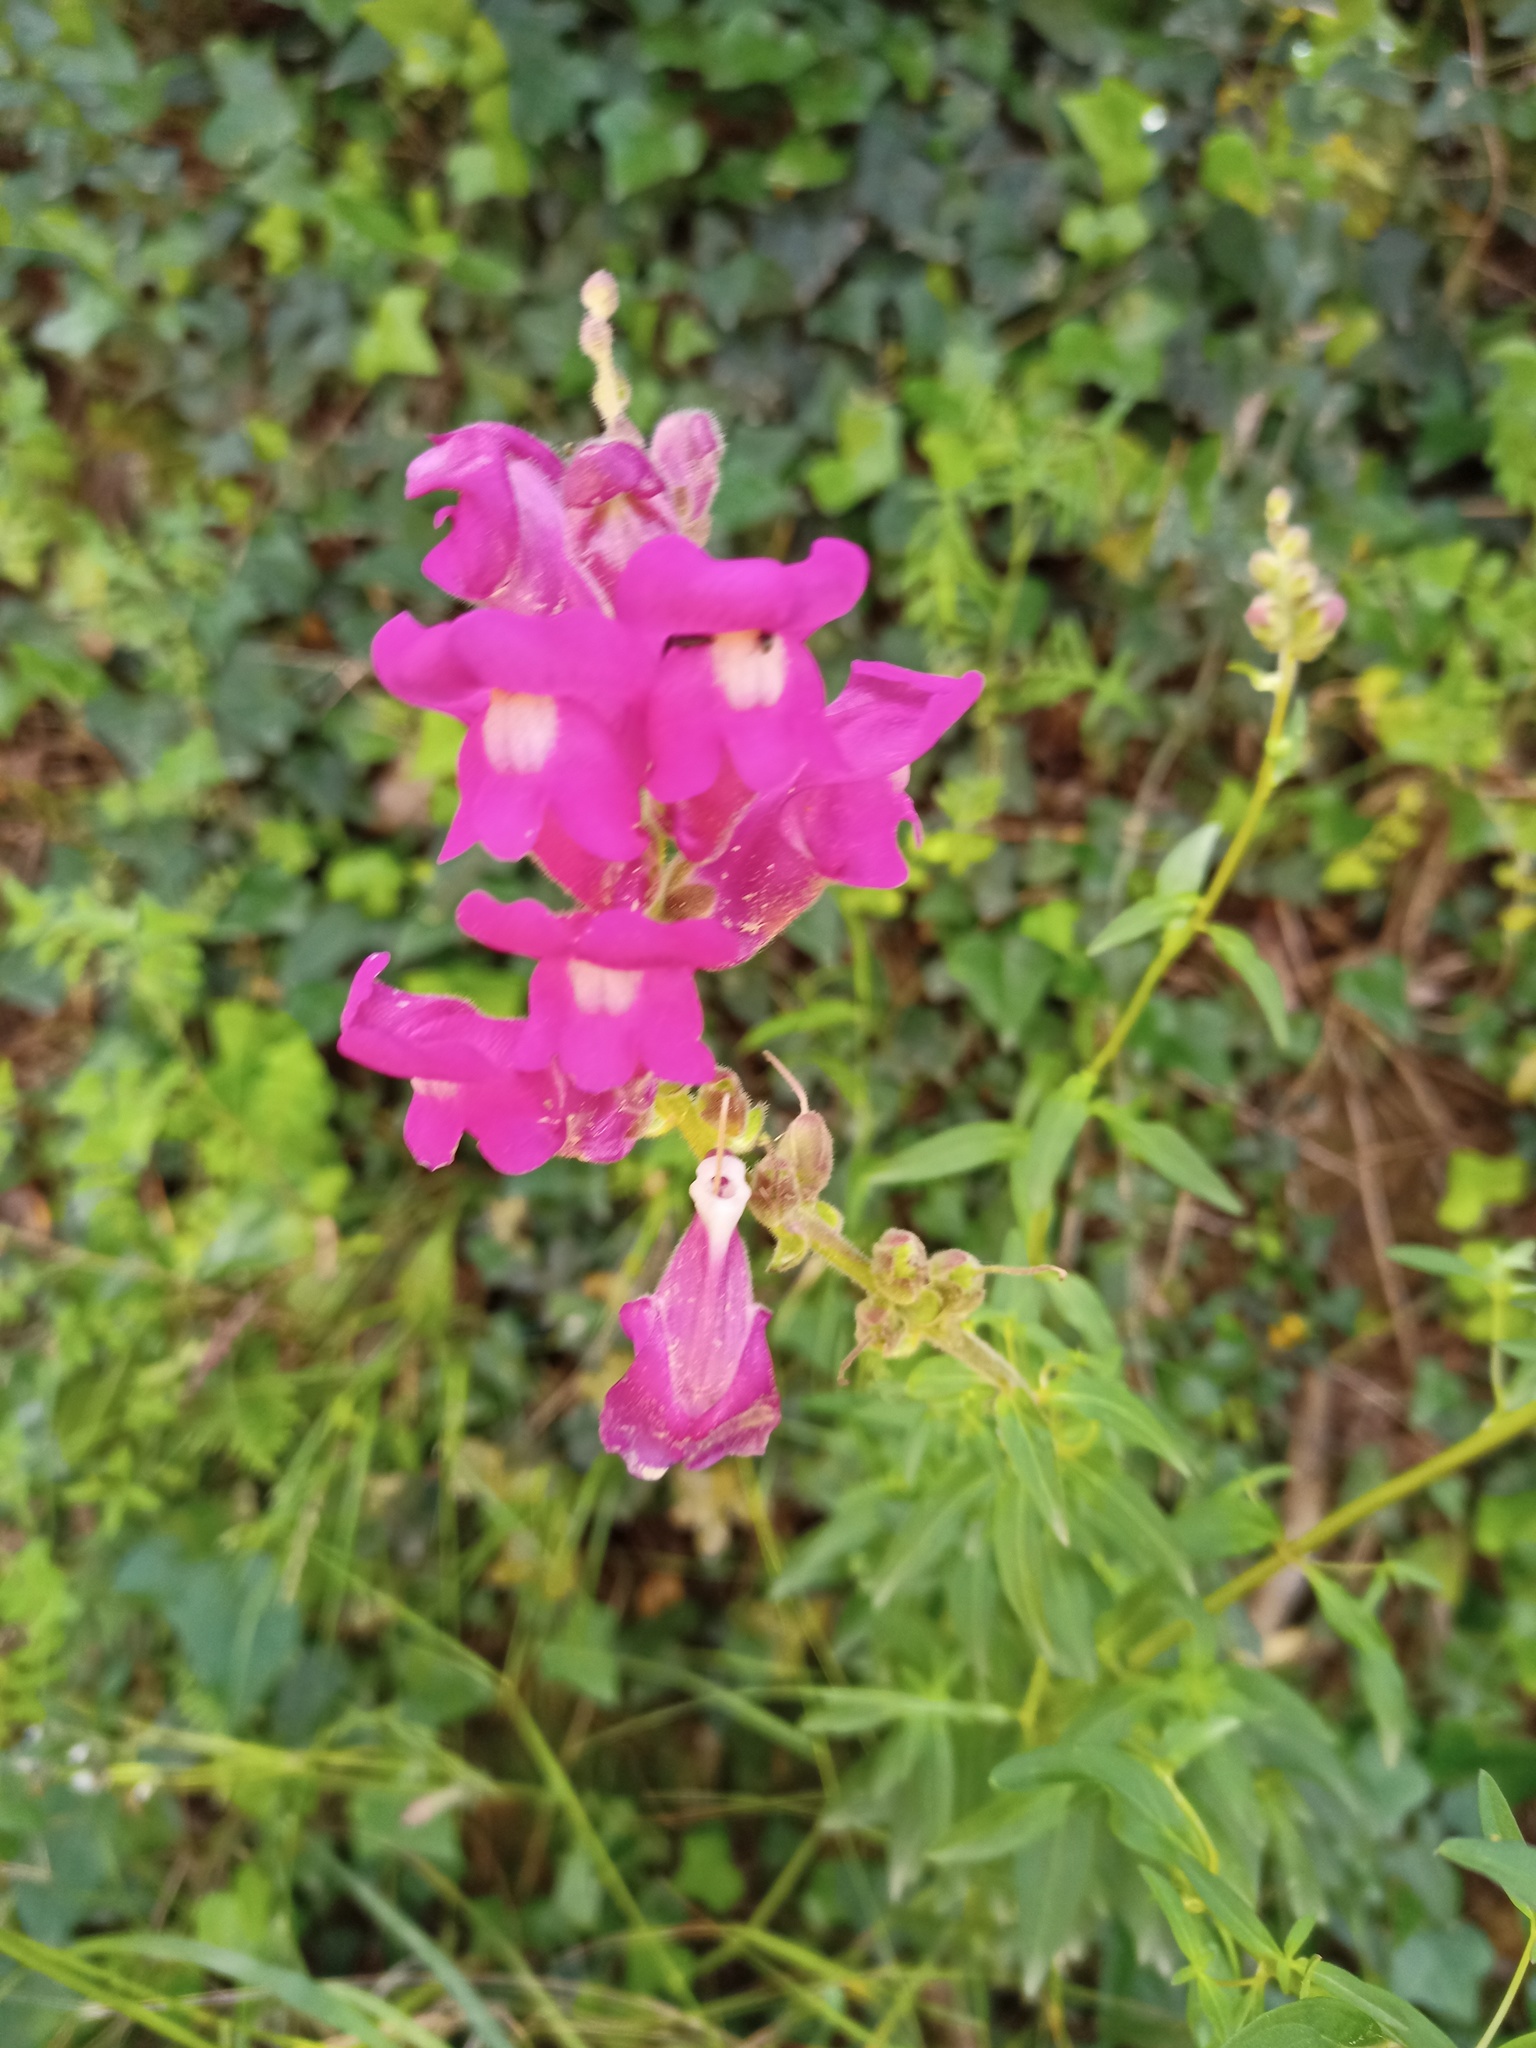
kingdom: Plantae
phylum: Tracheophyta
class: Magnoliopsida
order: Lamiales
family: Plantaginaceae
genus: Antirrhinum
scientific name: Antirrhinum majus
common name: Snapdragon
